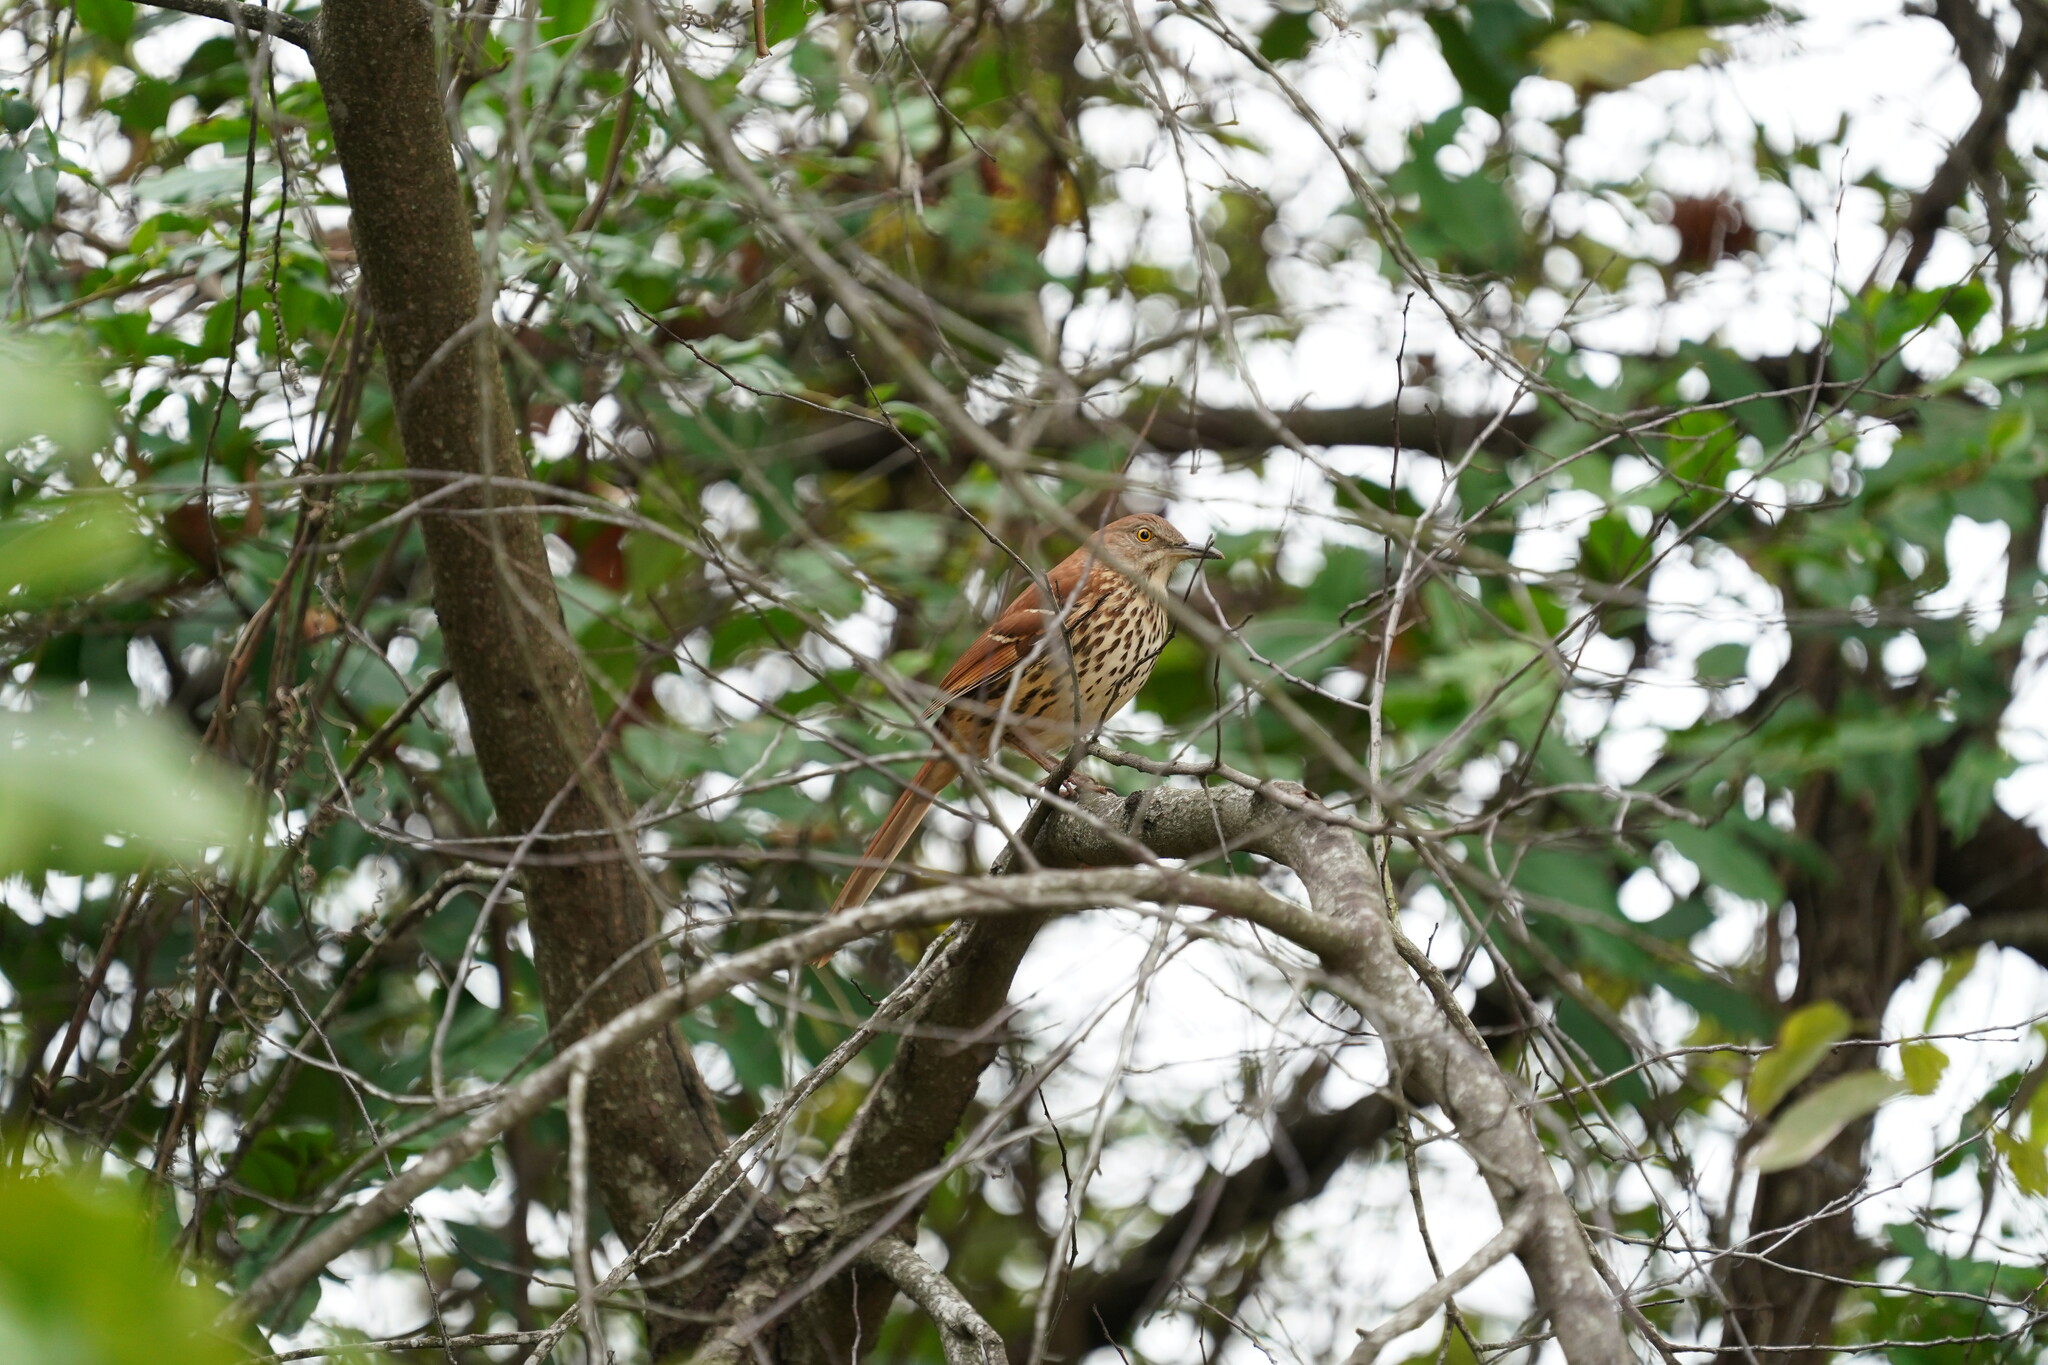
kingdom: Animalia
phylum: Chordata
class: Aves
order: Passeriformes
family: Mimidae
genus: Toxostoma
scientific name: Toxostoma rufum
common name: Brown thrasher
